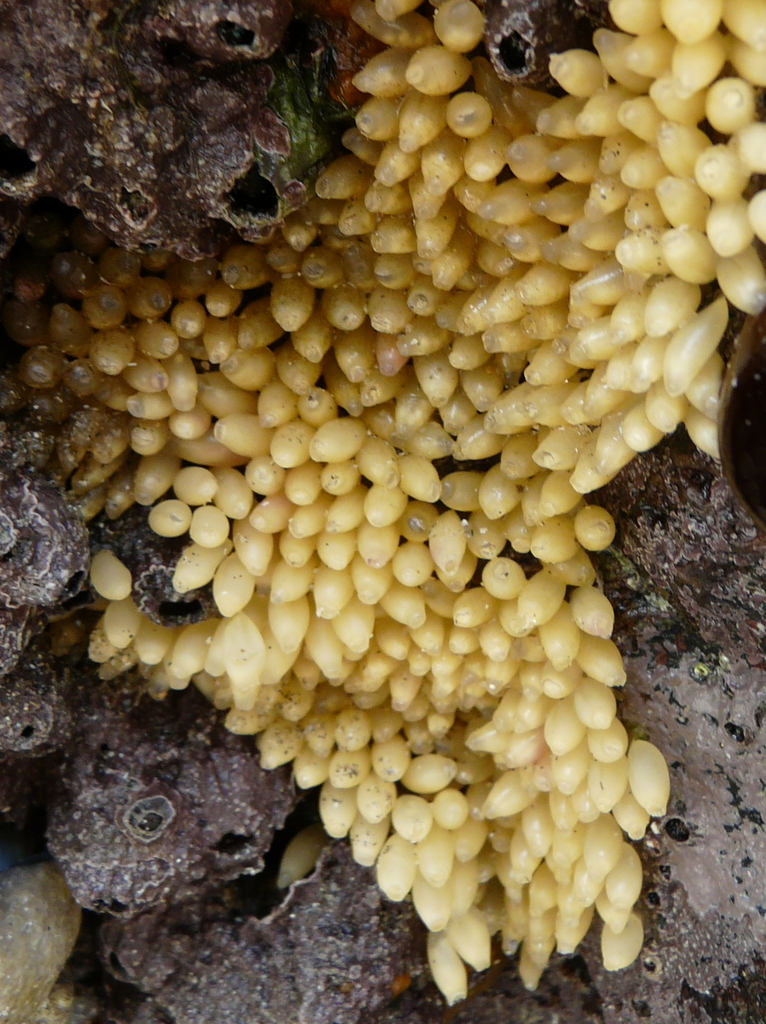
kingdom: Animalia
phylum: Mollusca
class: Gastropoda
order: Neogastropoda
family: Muricidae
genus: Nucella
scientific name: Nucella lapillus
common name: Dog whelk
